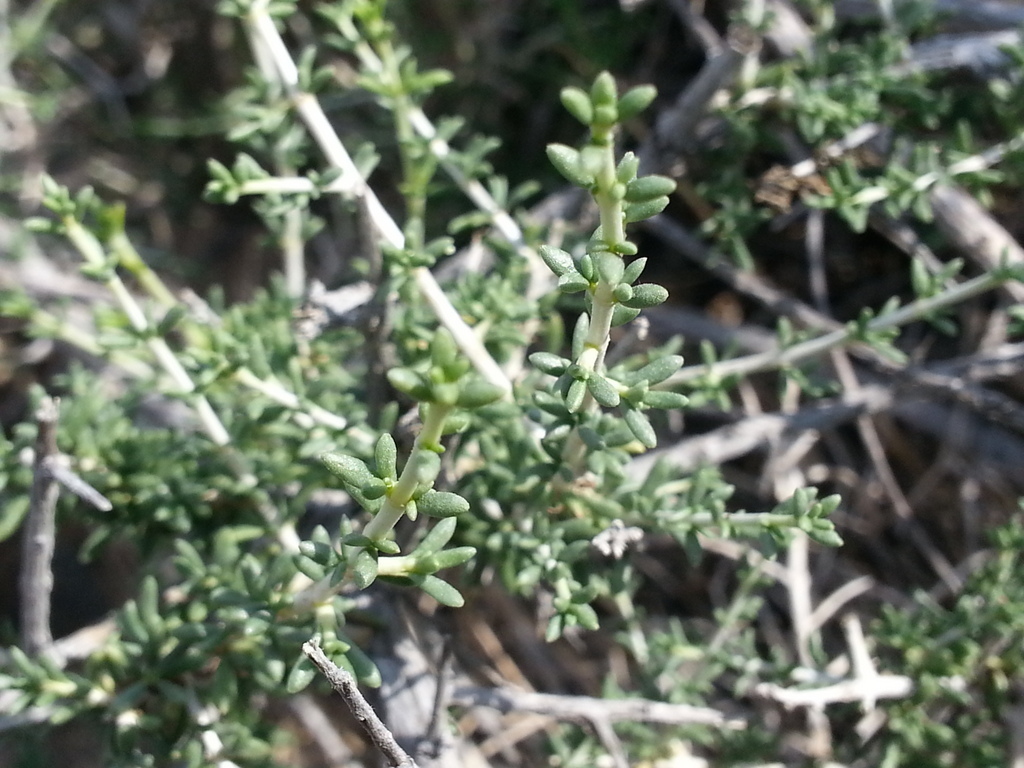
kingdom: Plantae
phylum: Tracheophyta
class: Magnoliopsida
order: Gentianales
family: Rubiaceae
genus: Plocama
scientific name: Plocama aucheri
